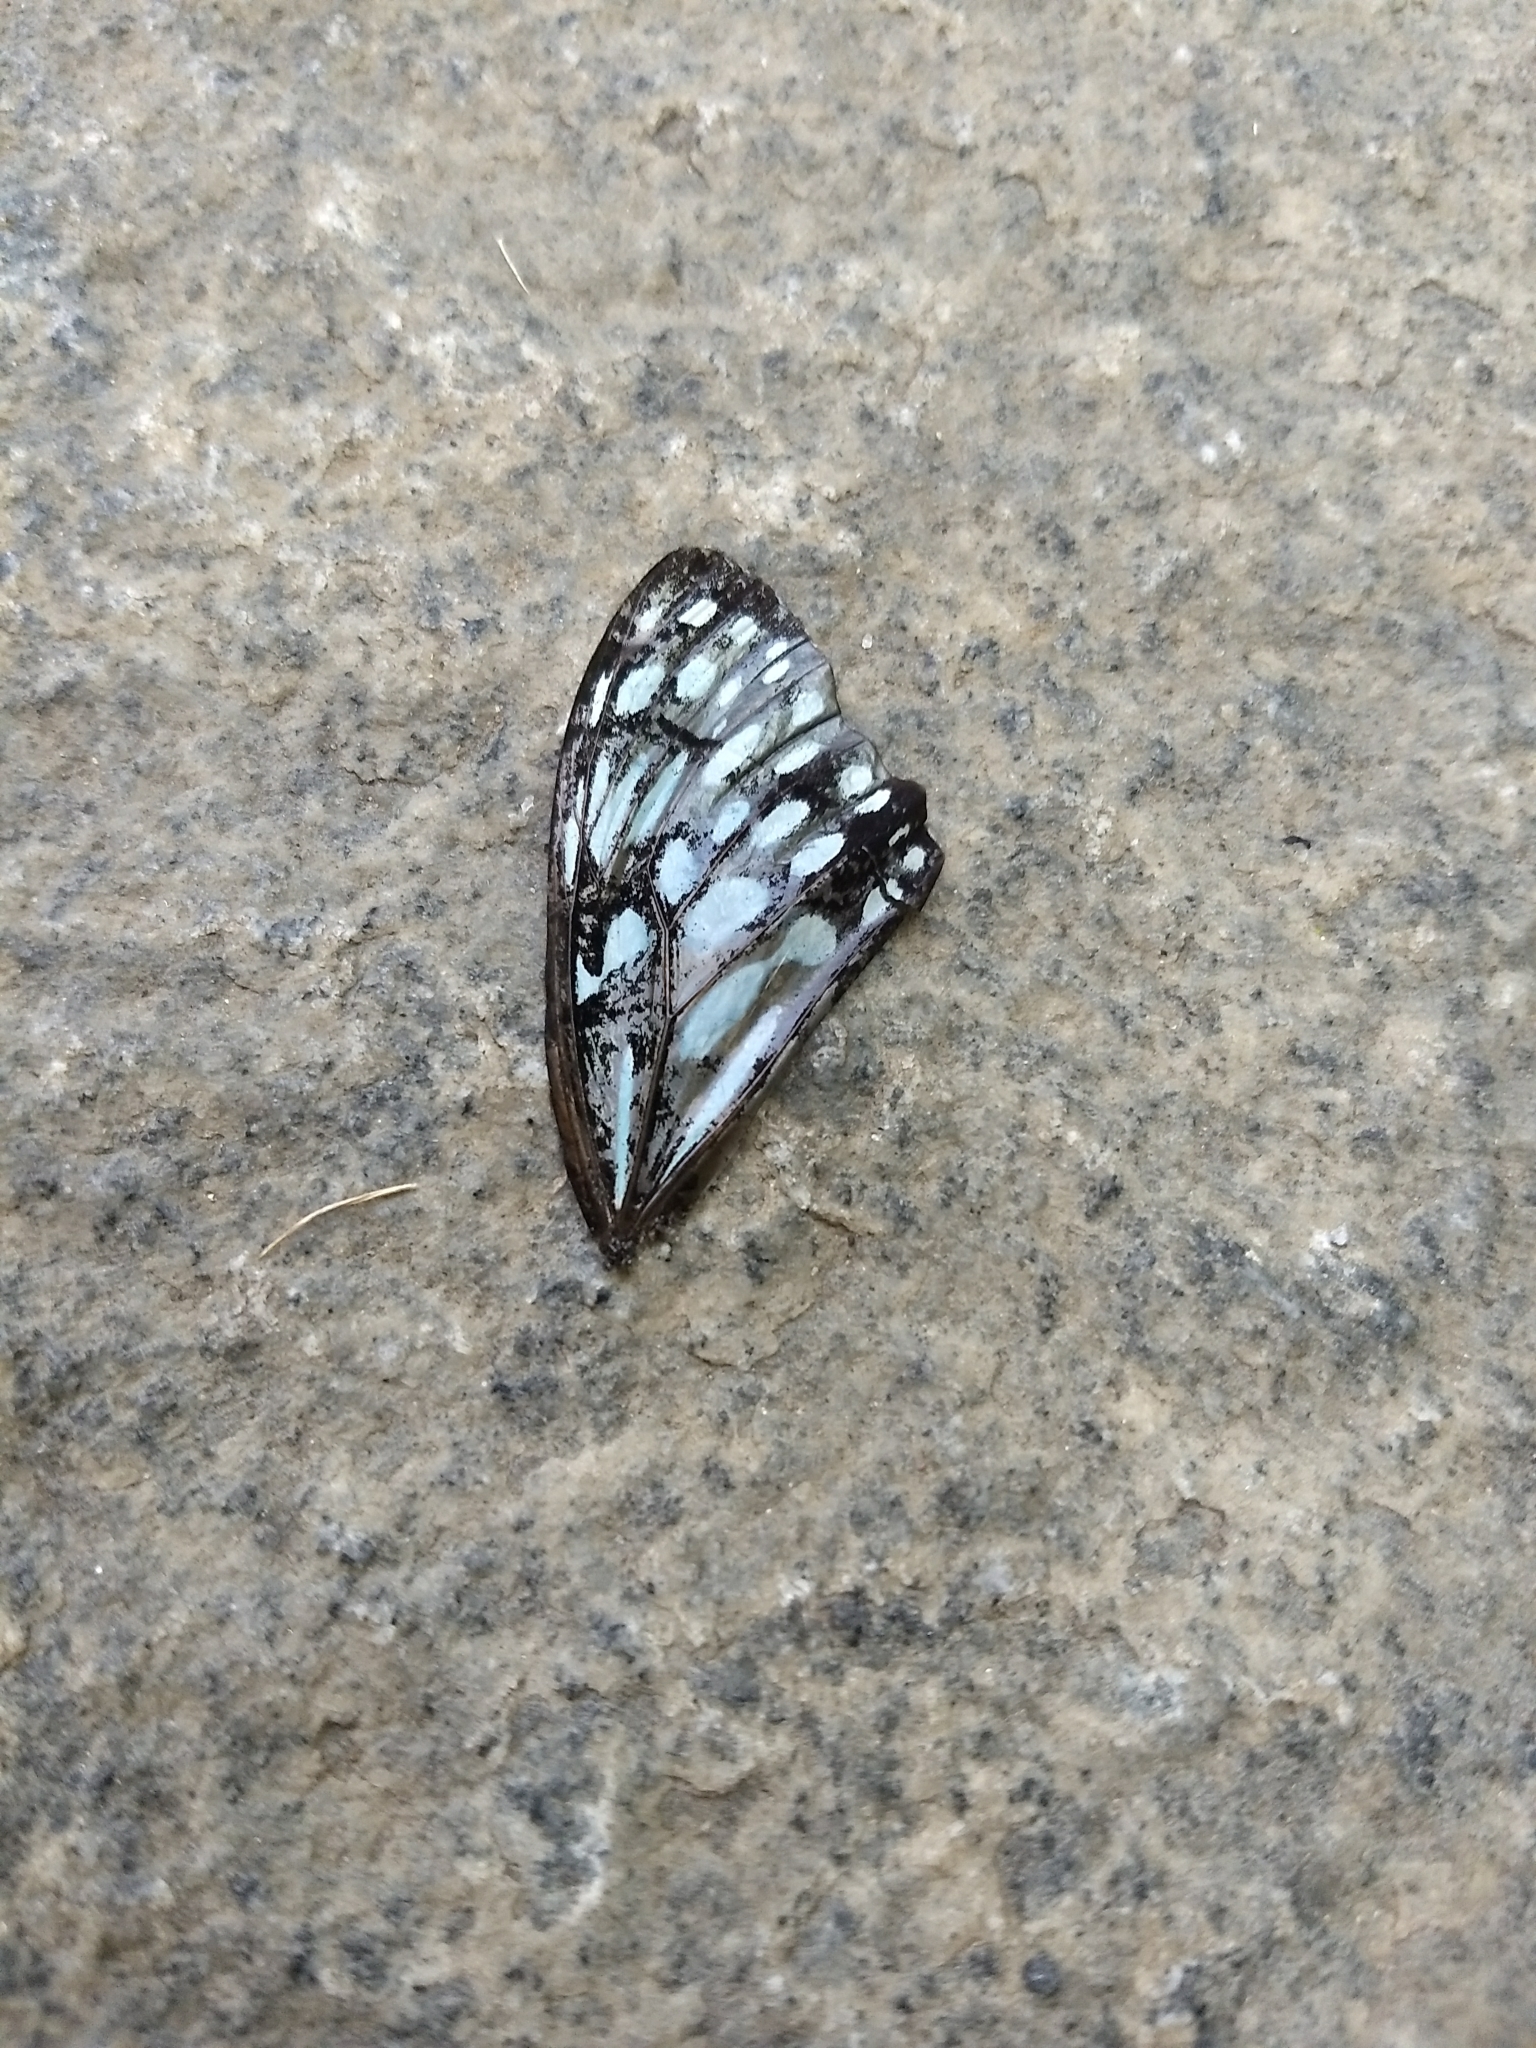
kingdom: Animalia
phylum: Arthropoda
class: Insecta
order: Lepidoptera
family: Nymphalidae
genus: Tirumala
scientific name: Tirumala septentrionis
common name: Dark blue tiger butterfly
